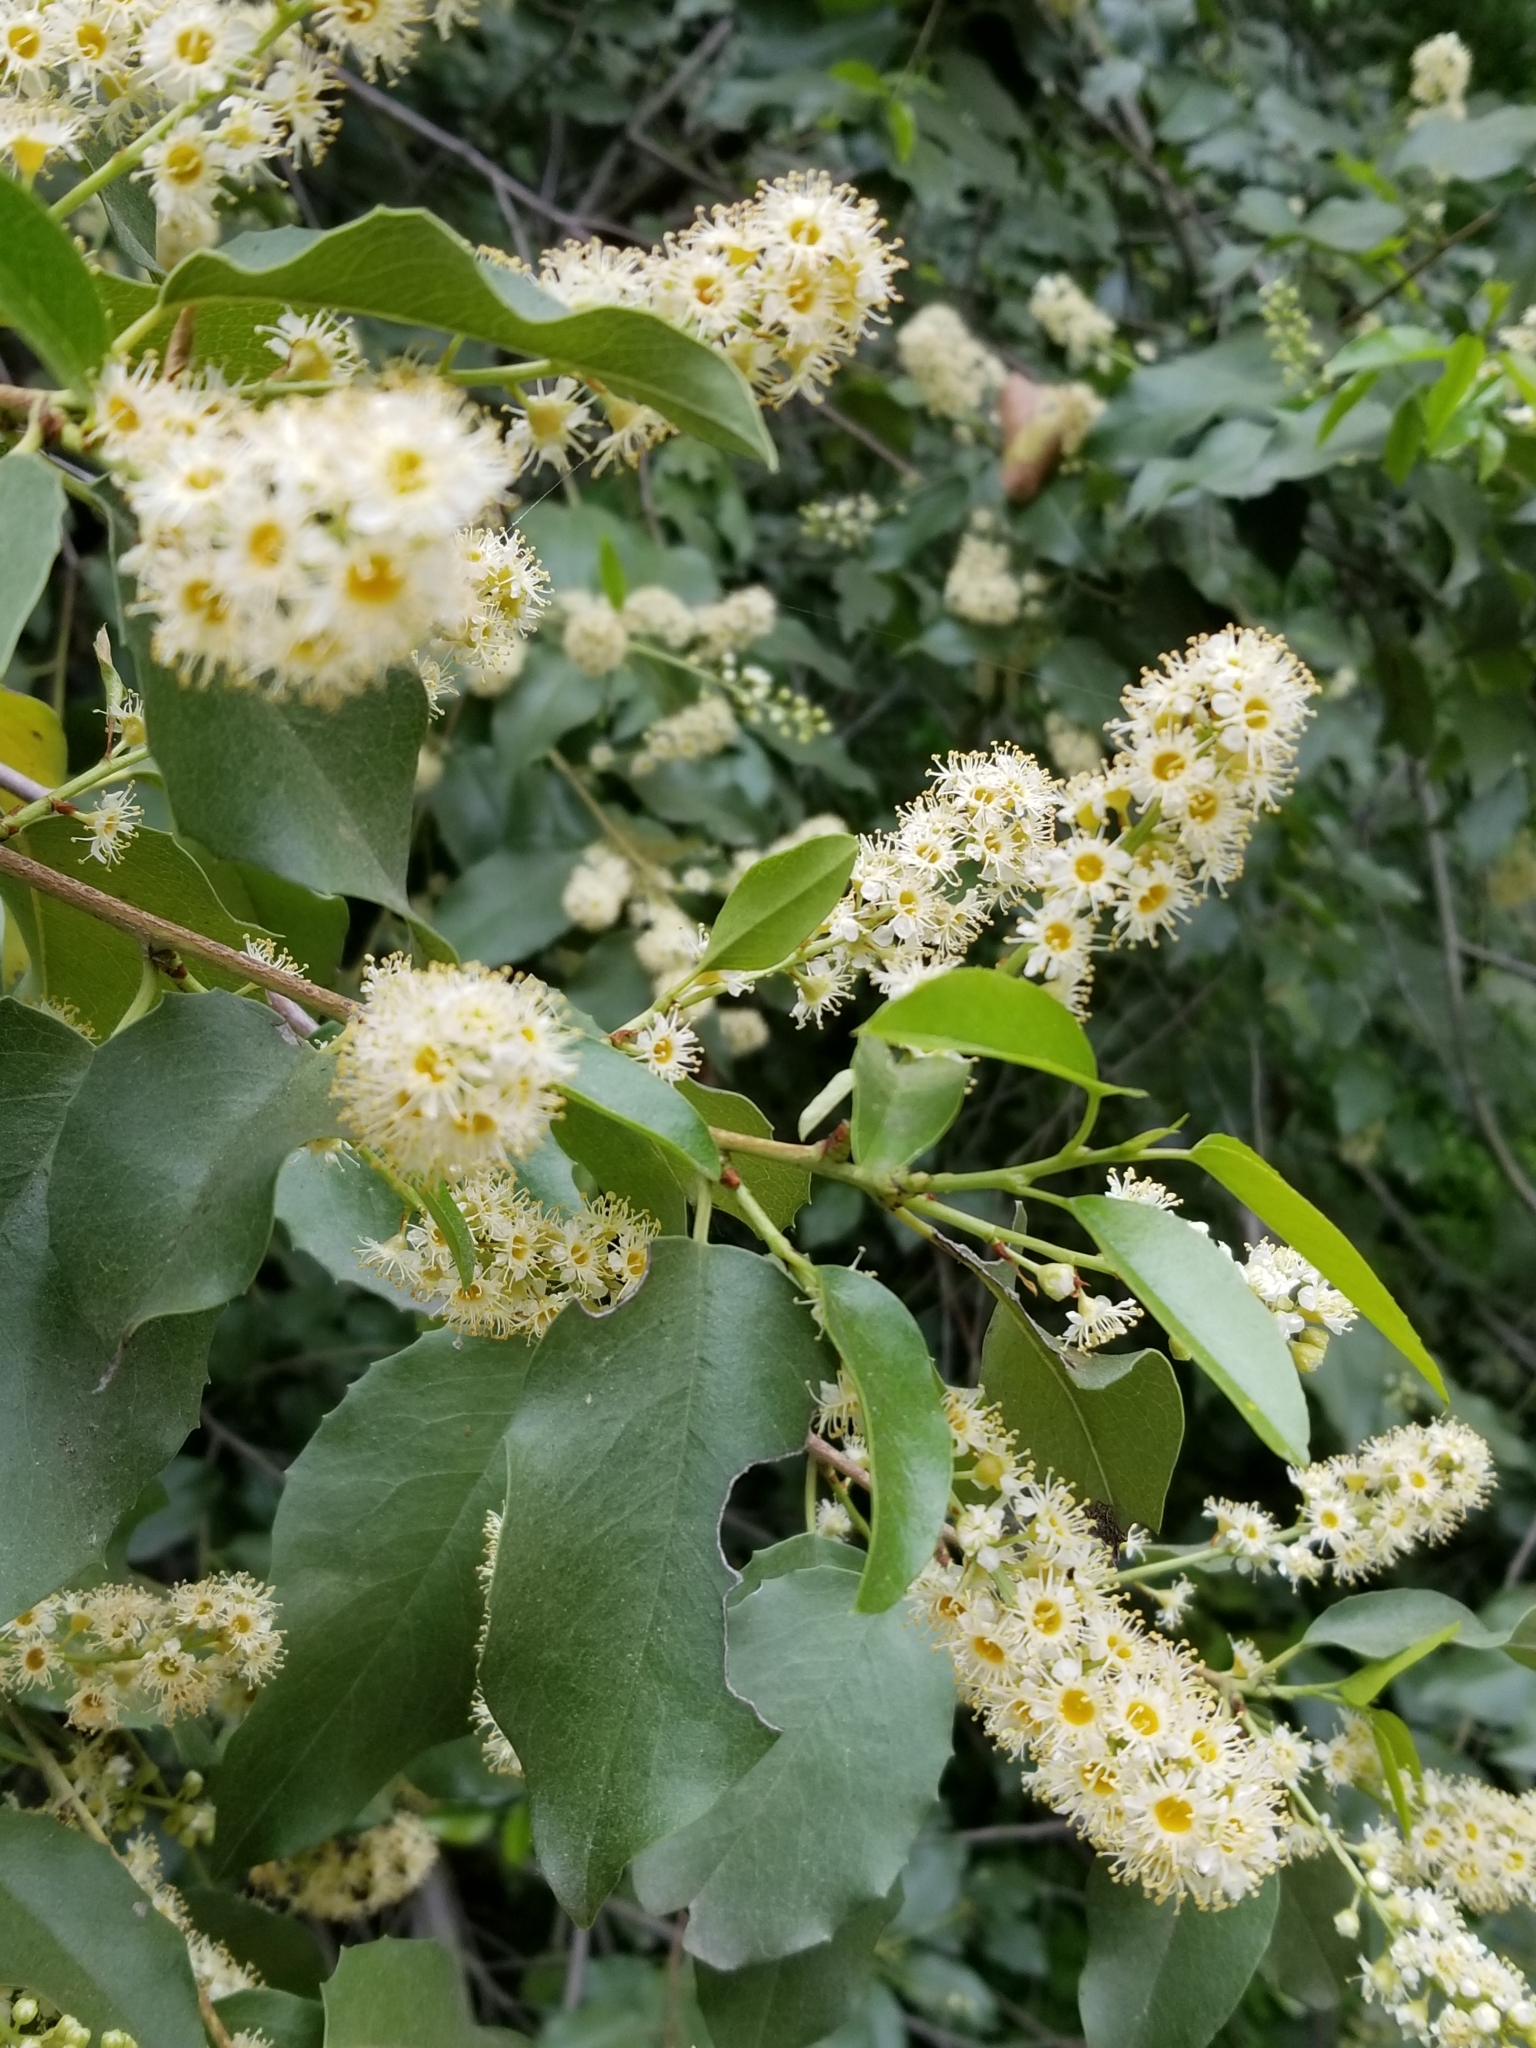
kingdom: Plantae
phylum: Tracheophyta
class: Magnoliopsida
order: Rosales
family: Rosaceae
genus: Prunus
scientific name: Prunus ilicifolia
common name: Hollyleaf cherry
